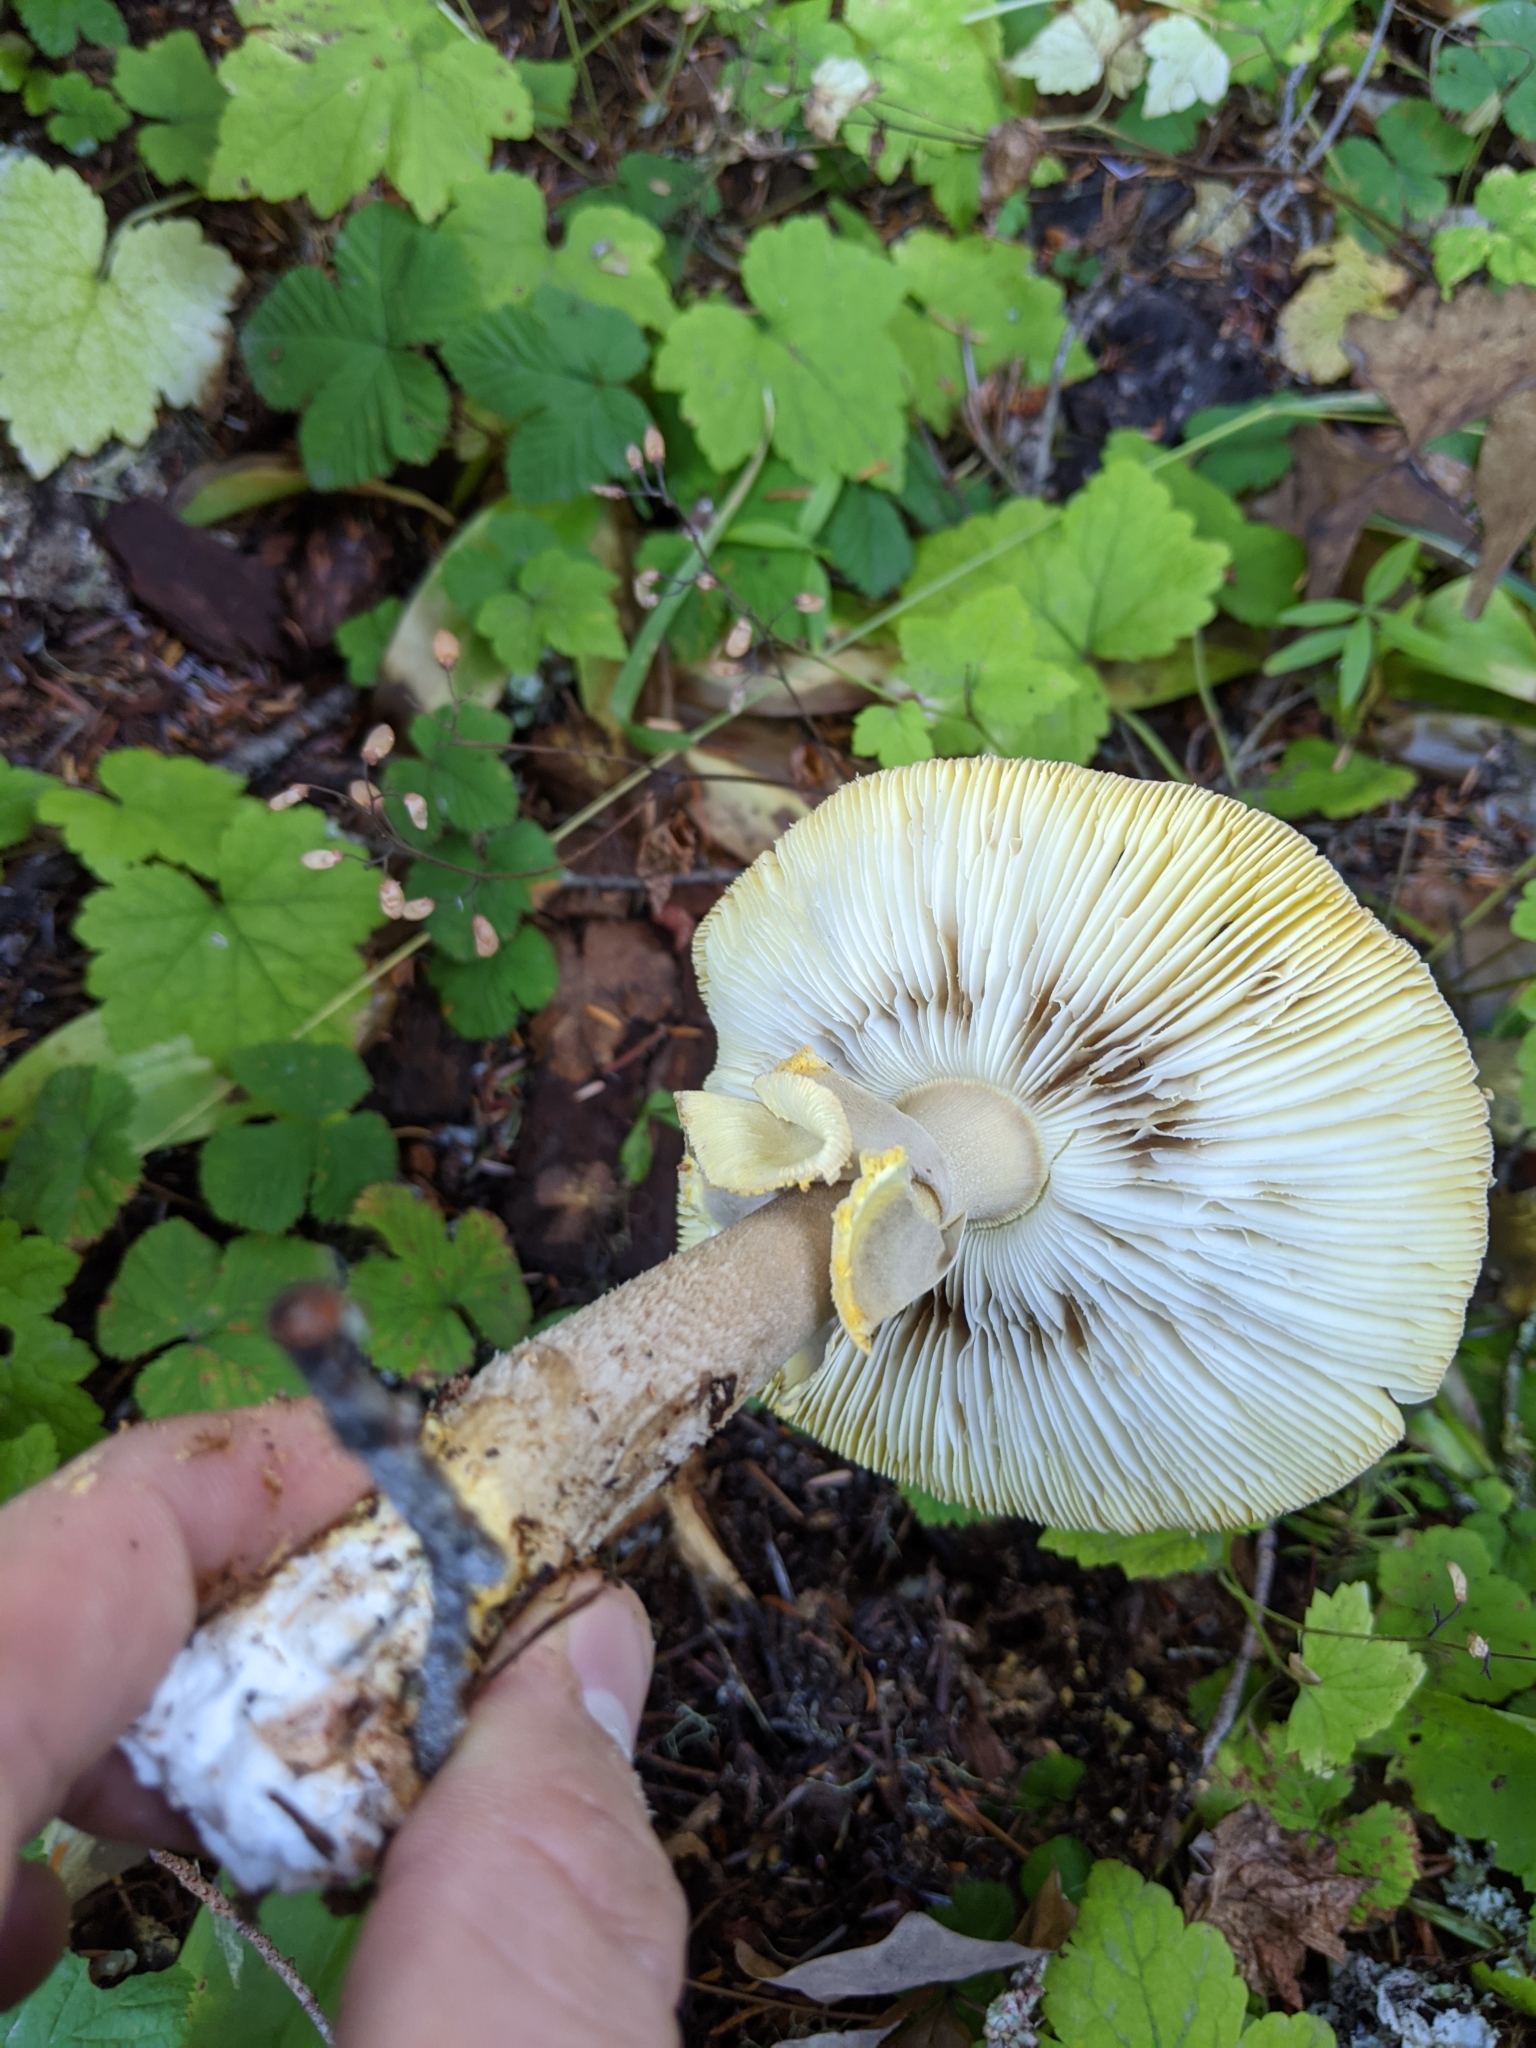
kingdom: Fungi
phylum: Basidiomycota
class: Agaricomycetes
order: Agaricales
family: Amanitaceae
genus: Amanita
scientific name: Amanita augusta
